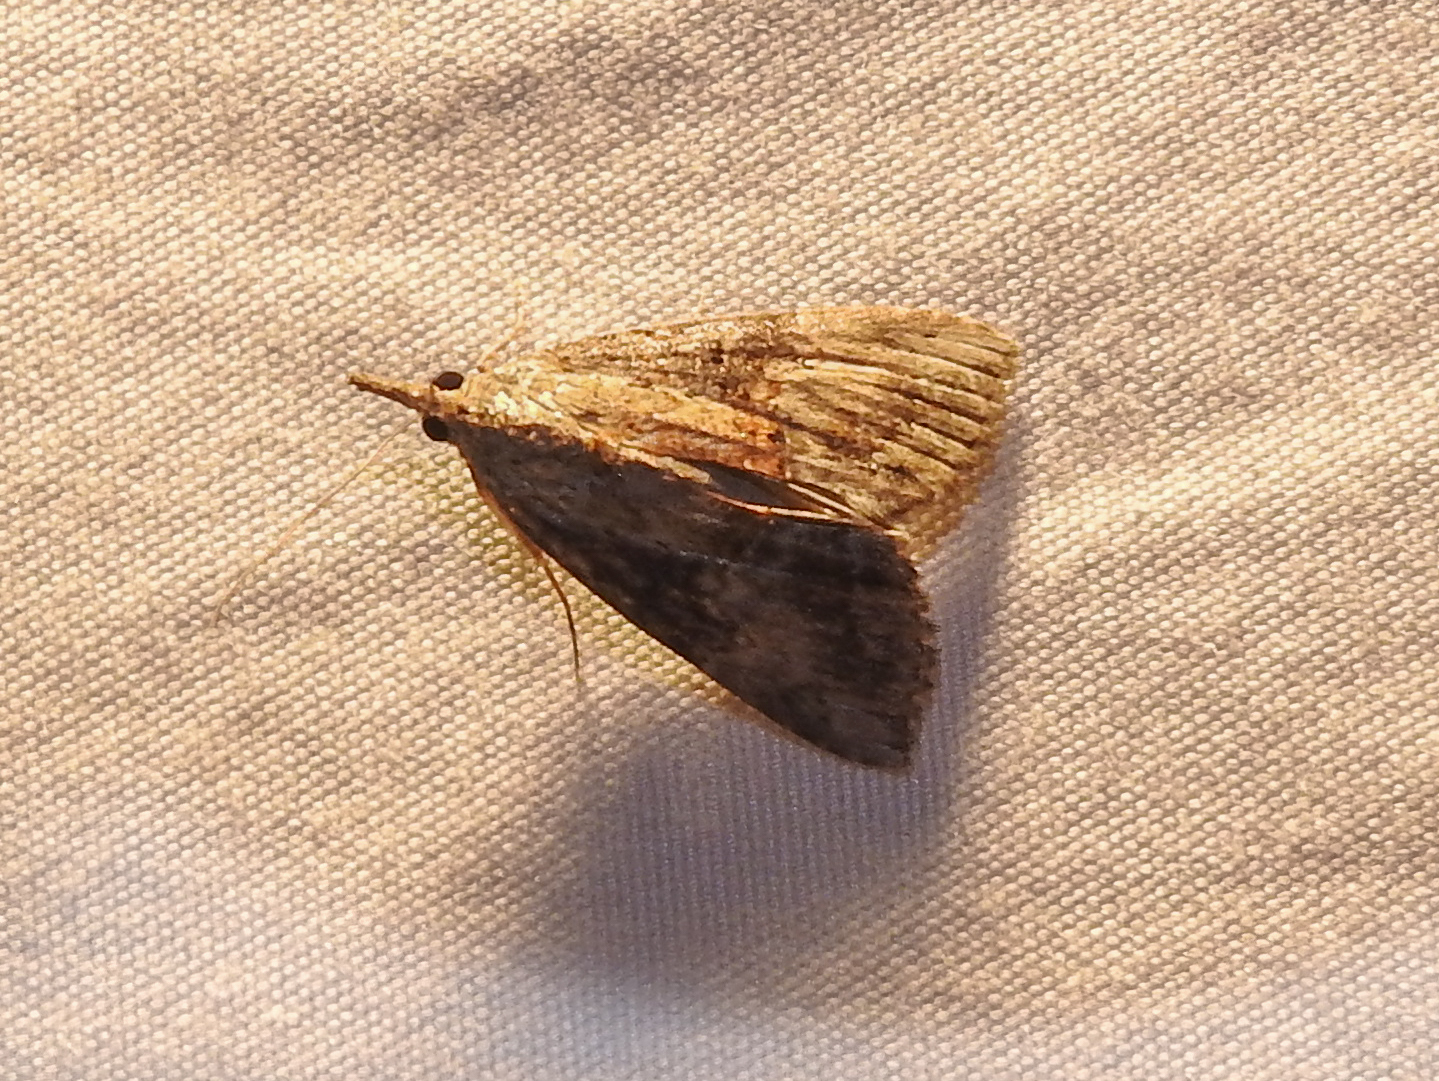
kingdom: Animalia
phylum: Arthropoda
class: Insecta
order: Lepidoptera
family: Erebidae
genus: Hypena
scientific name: Hypena scabra
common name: Green cloverworm
